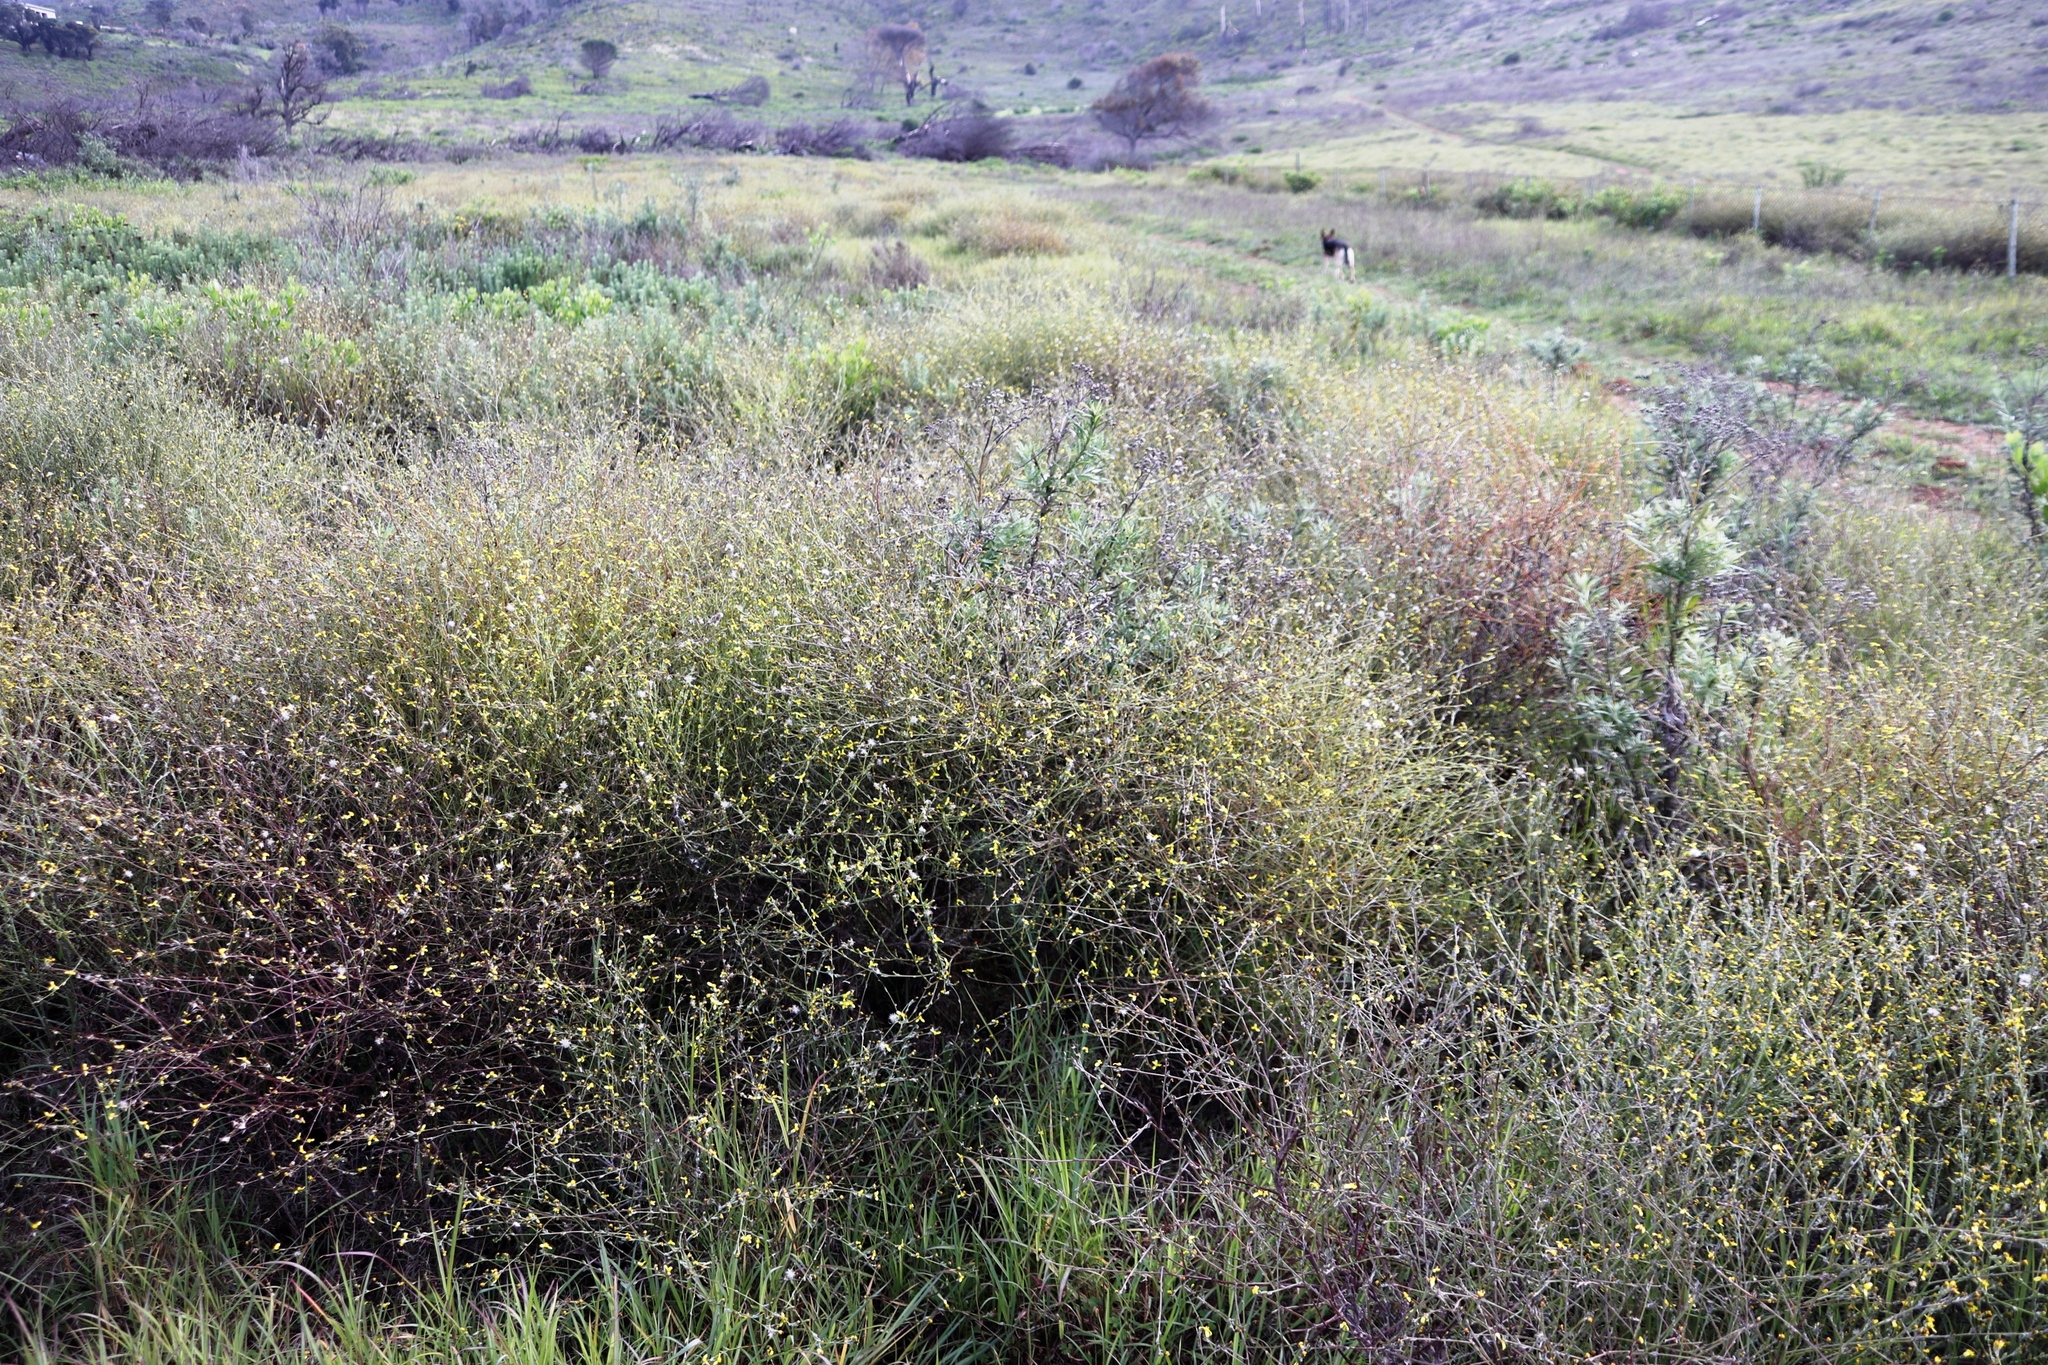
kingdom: Plantae
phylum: Tracheophyta
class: Magnoliopsida
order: Asterales
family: Asteraceae
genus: Senecio
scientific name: Senecio pubigerus
